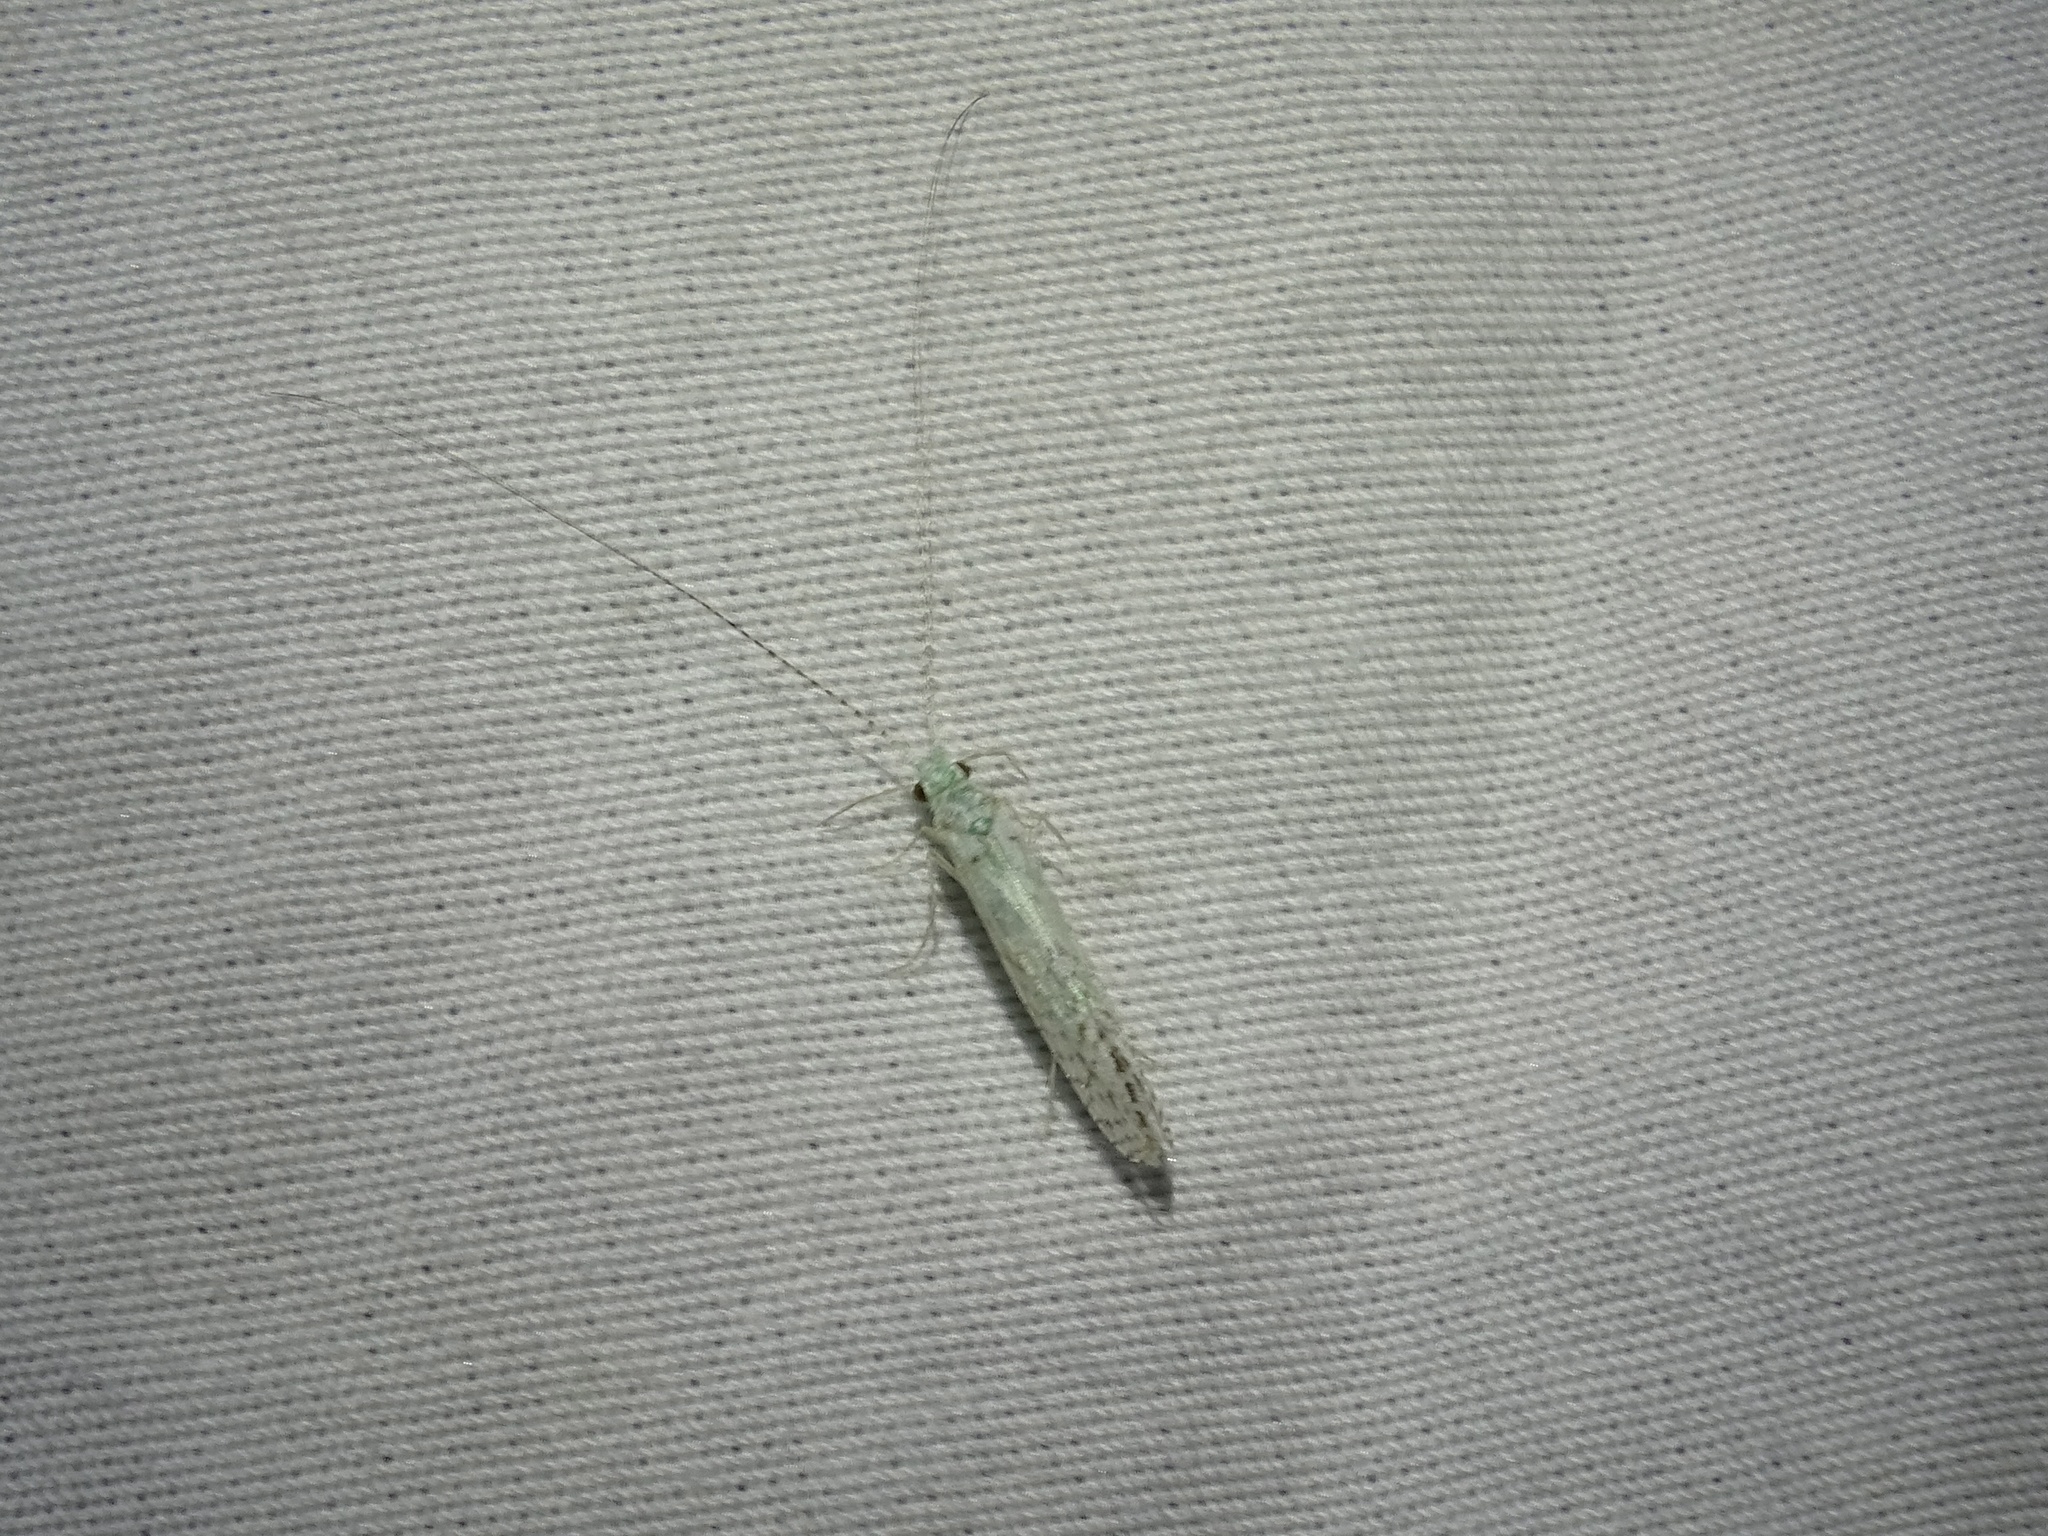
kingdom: Animalia
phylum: Arthropoda
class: Insecta
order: Trichoptera
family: Leptoceridae
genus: Nectopsyche
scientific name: Nectopsyche candida
